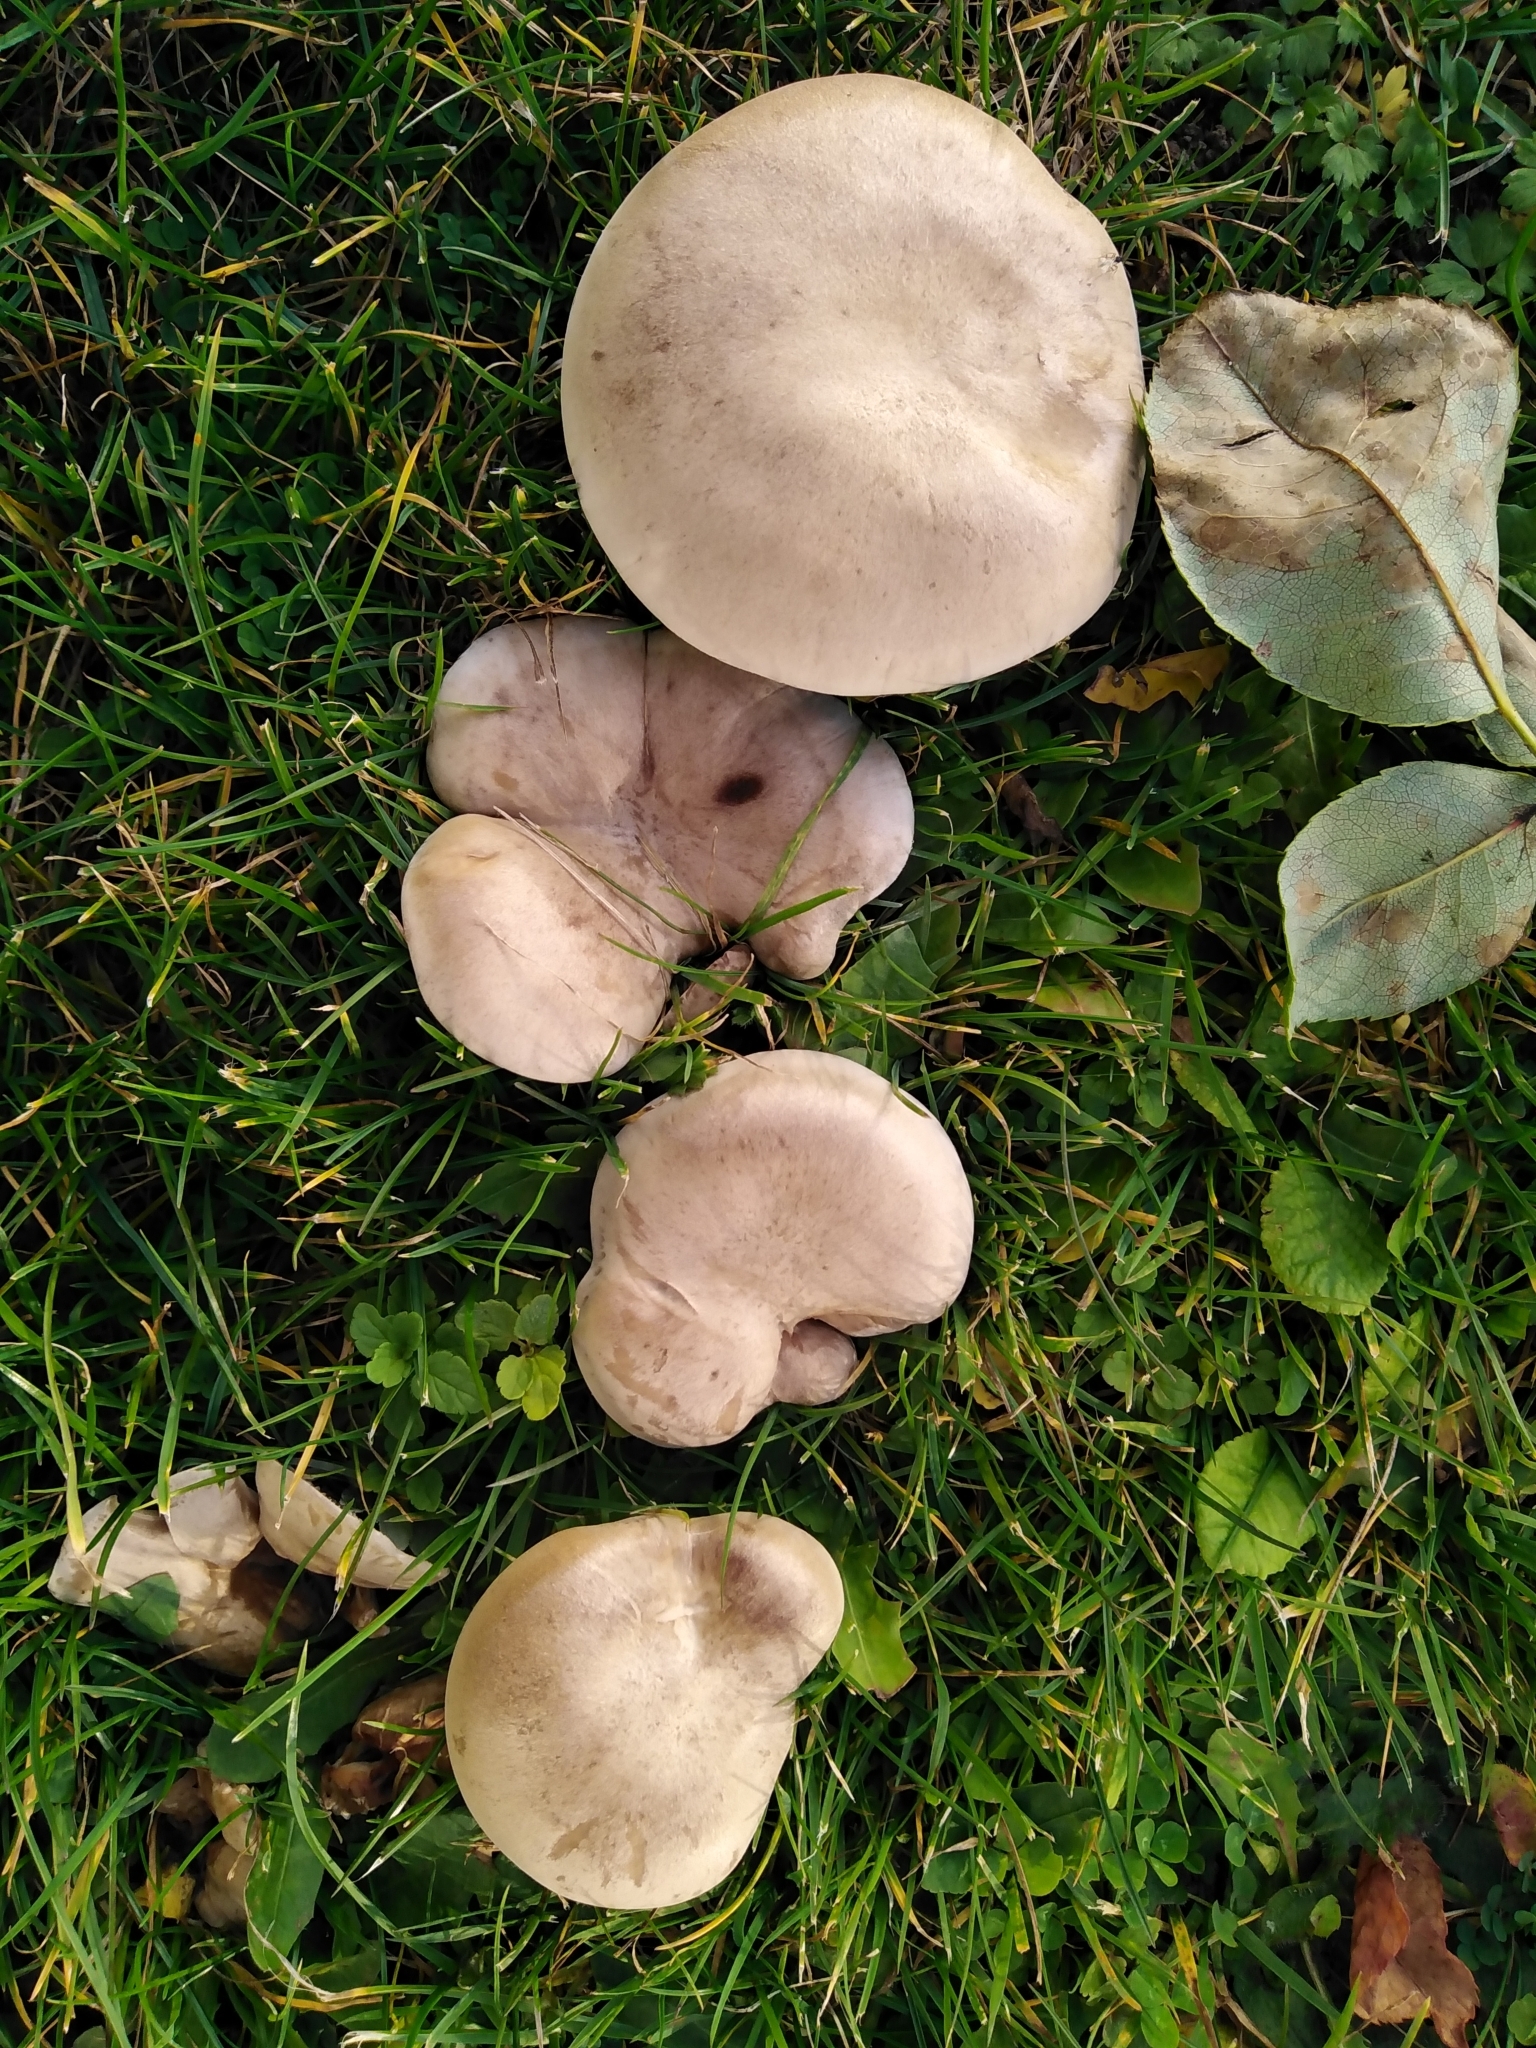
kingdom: Fungi
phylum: Basidiomycota
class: Agaricomycetes
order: Agaricales
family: Tricholomataceae
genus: Lepista
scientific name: Lepista luscina
